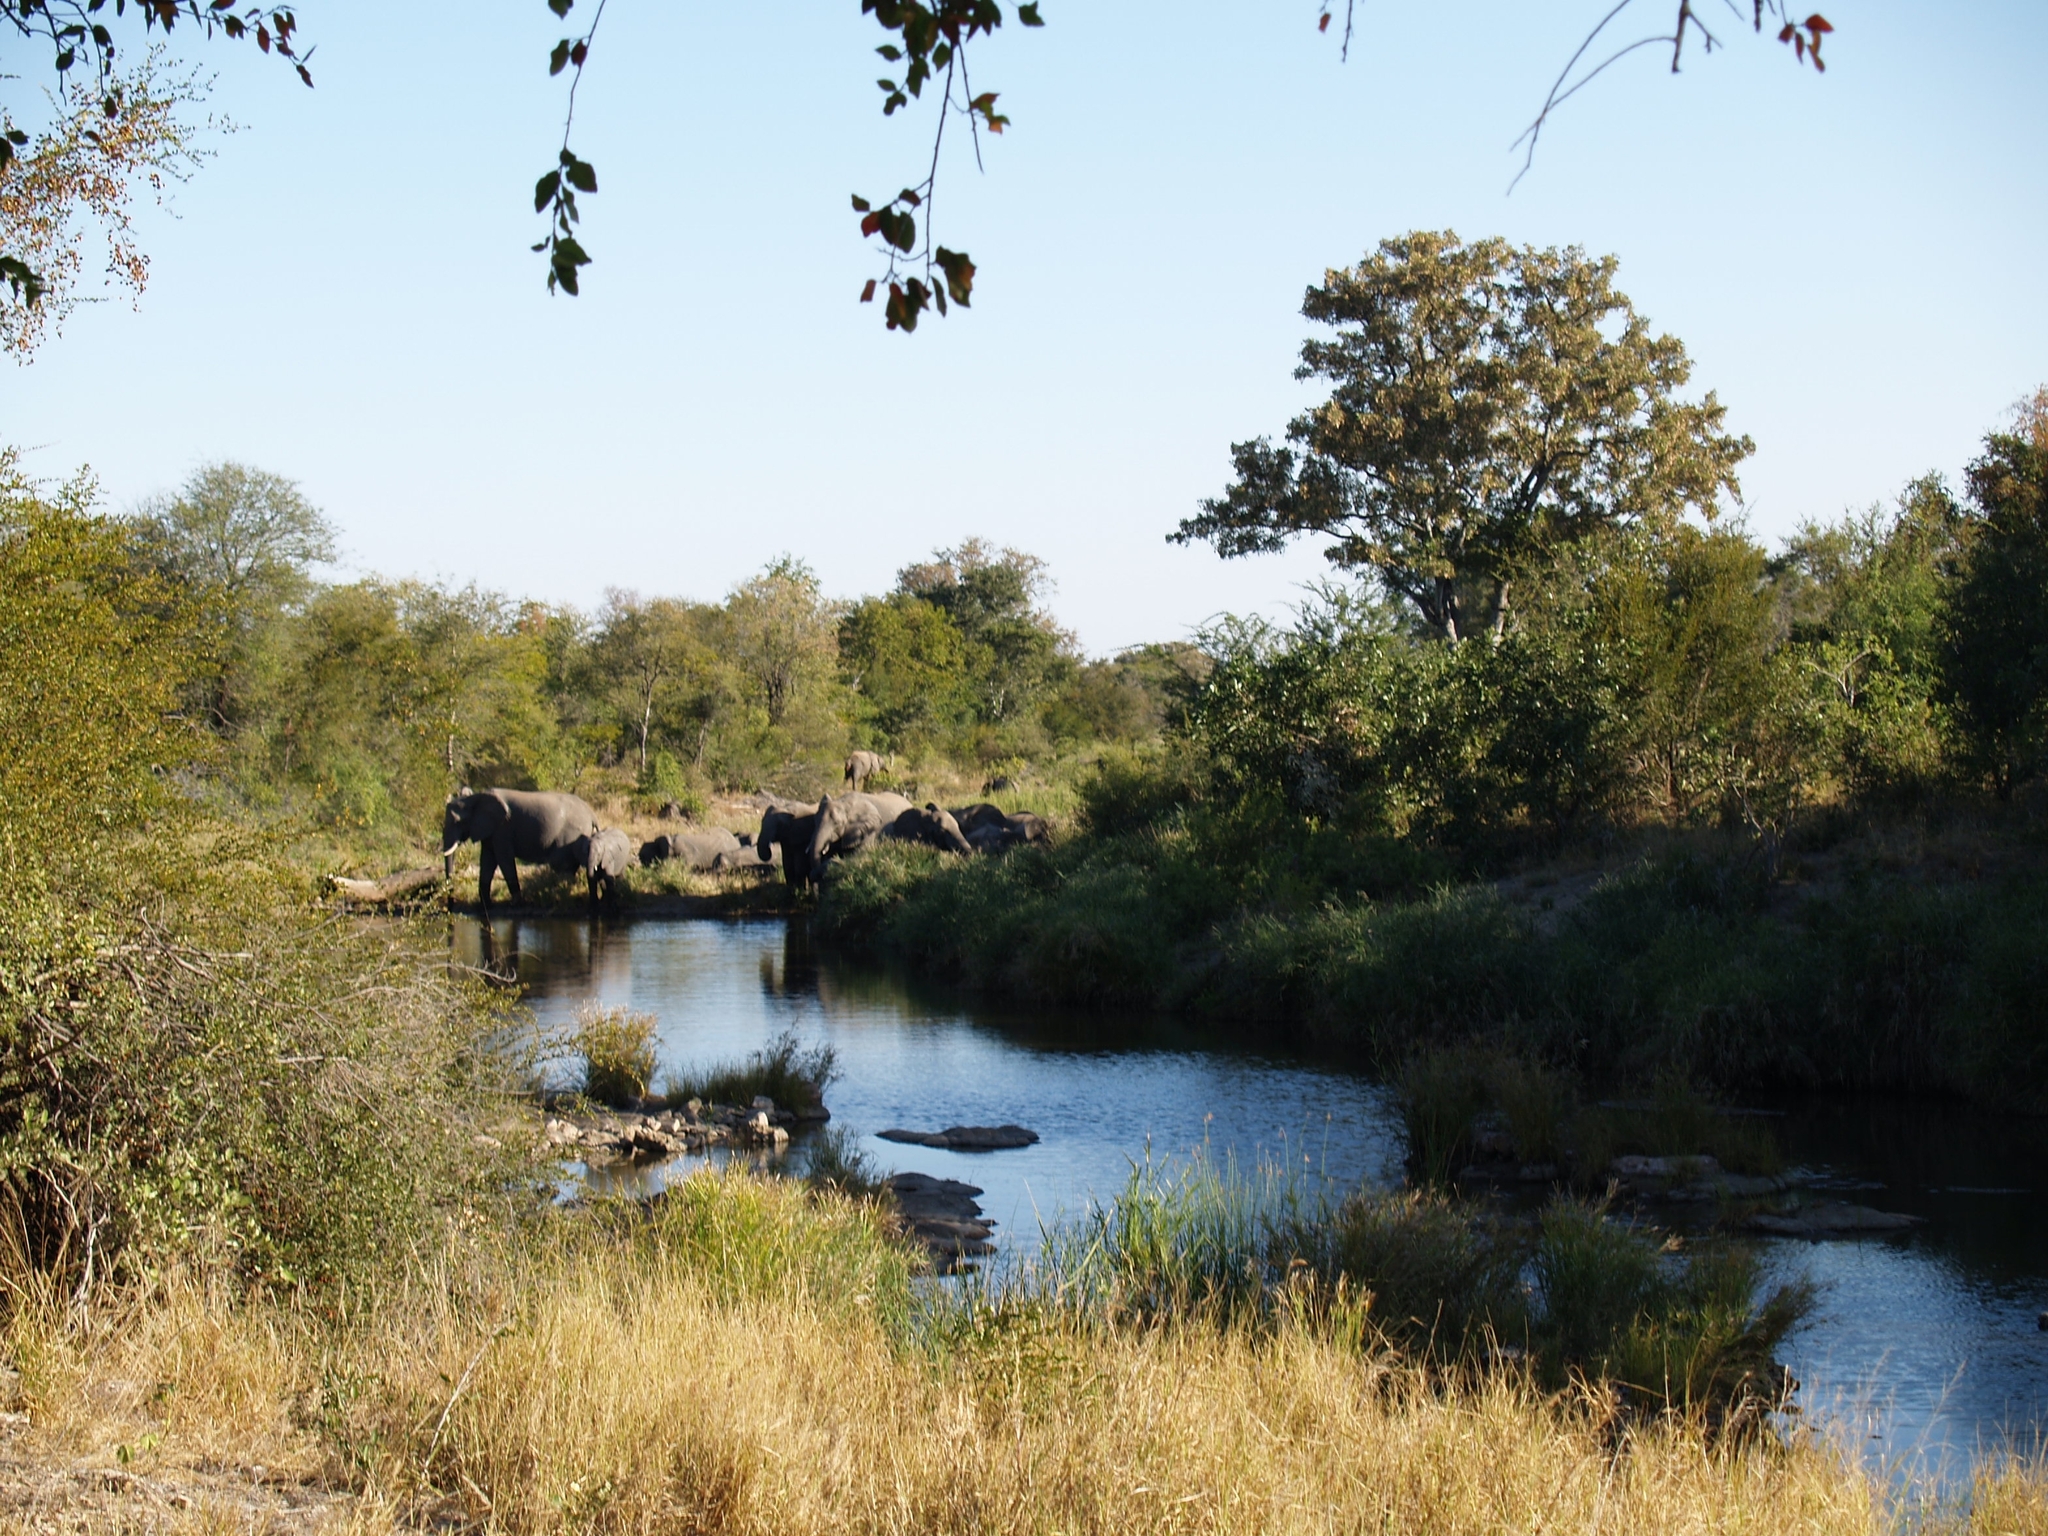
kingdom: Animalia
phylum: Chordata
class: Mammalia
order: Proboscidea
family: Elephantidae
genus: Loxodonta
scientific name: Loxodonta africana
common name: African elephant
